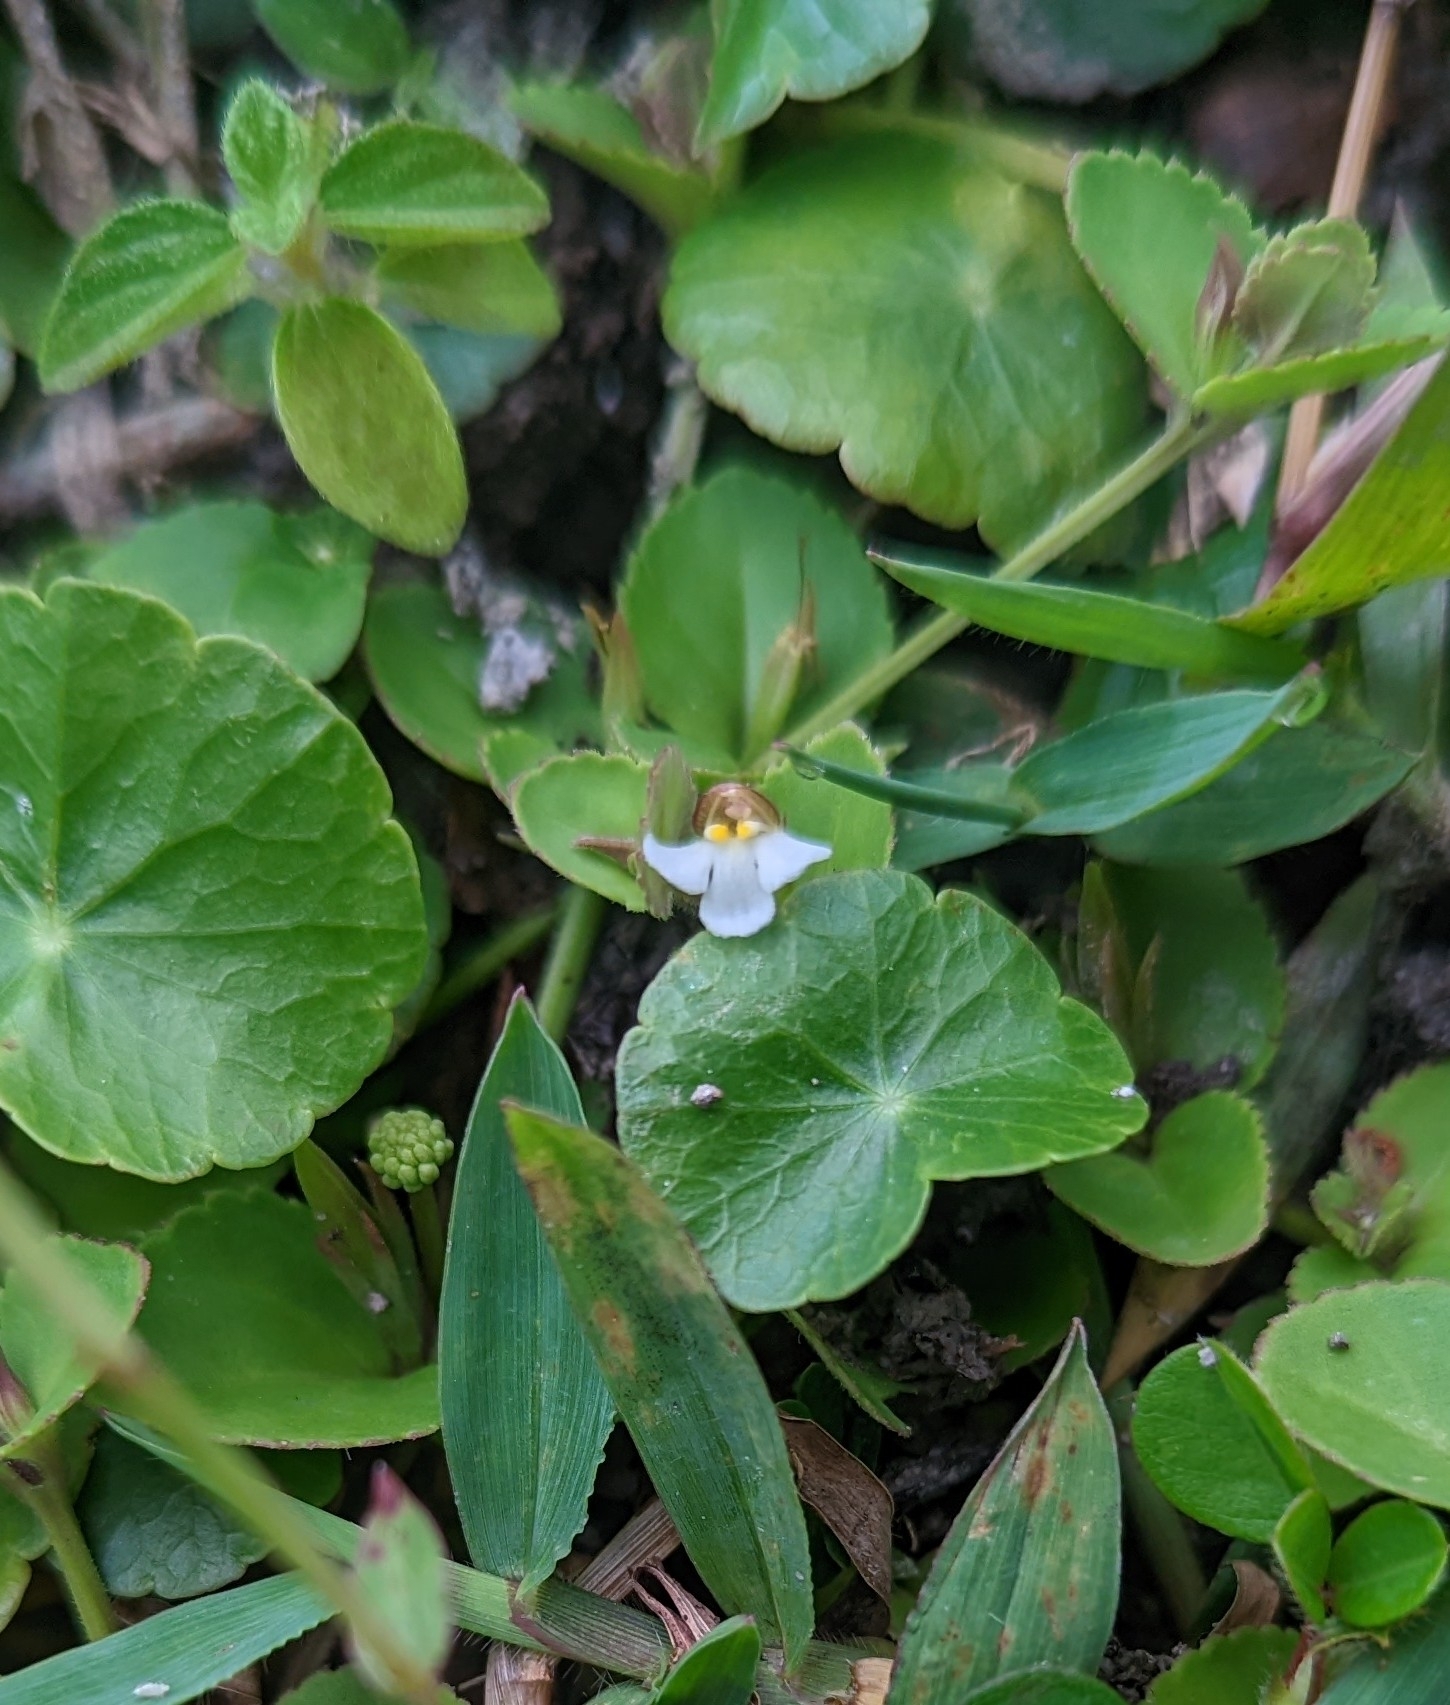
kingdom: Plantae
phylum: Tracheophyta
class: Magnoliopsida
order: Lamiales
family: Linderniaceae
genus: Legazpia
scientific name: Legazpia polygonoides
